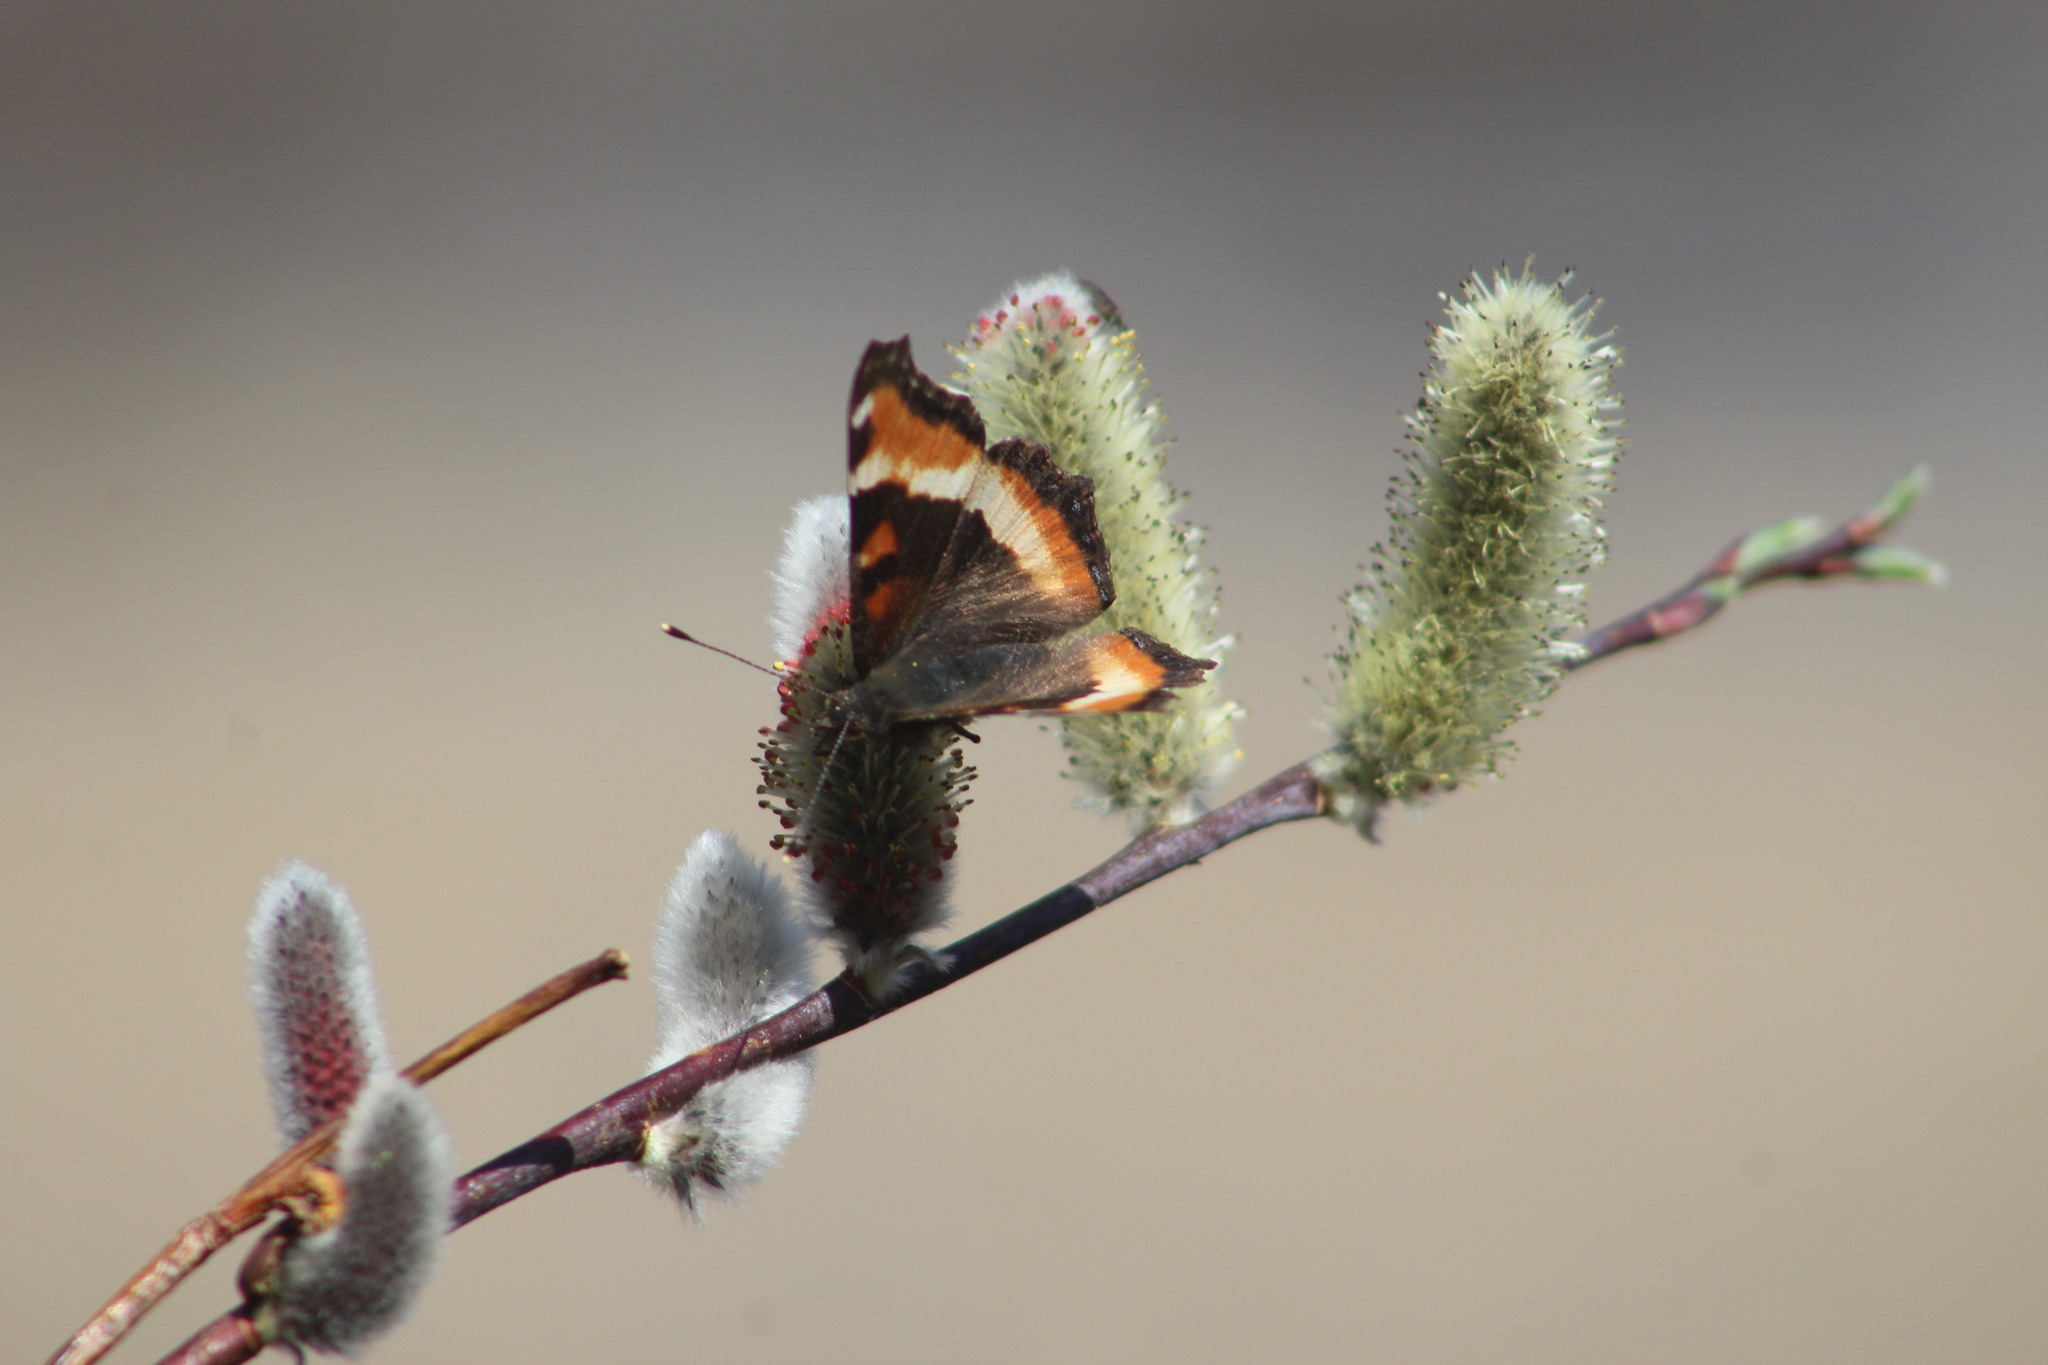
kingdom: Animalia
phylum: Arthropoda
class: Insecta
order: Lepidoptera
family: Nymphalidae
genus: Aglais
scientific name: Aglais milberti
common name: Milbert's tortoiseshell
